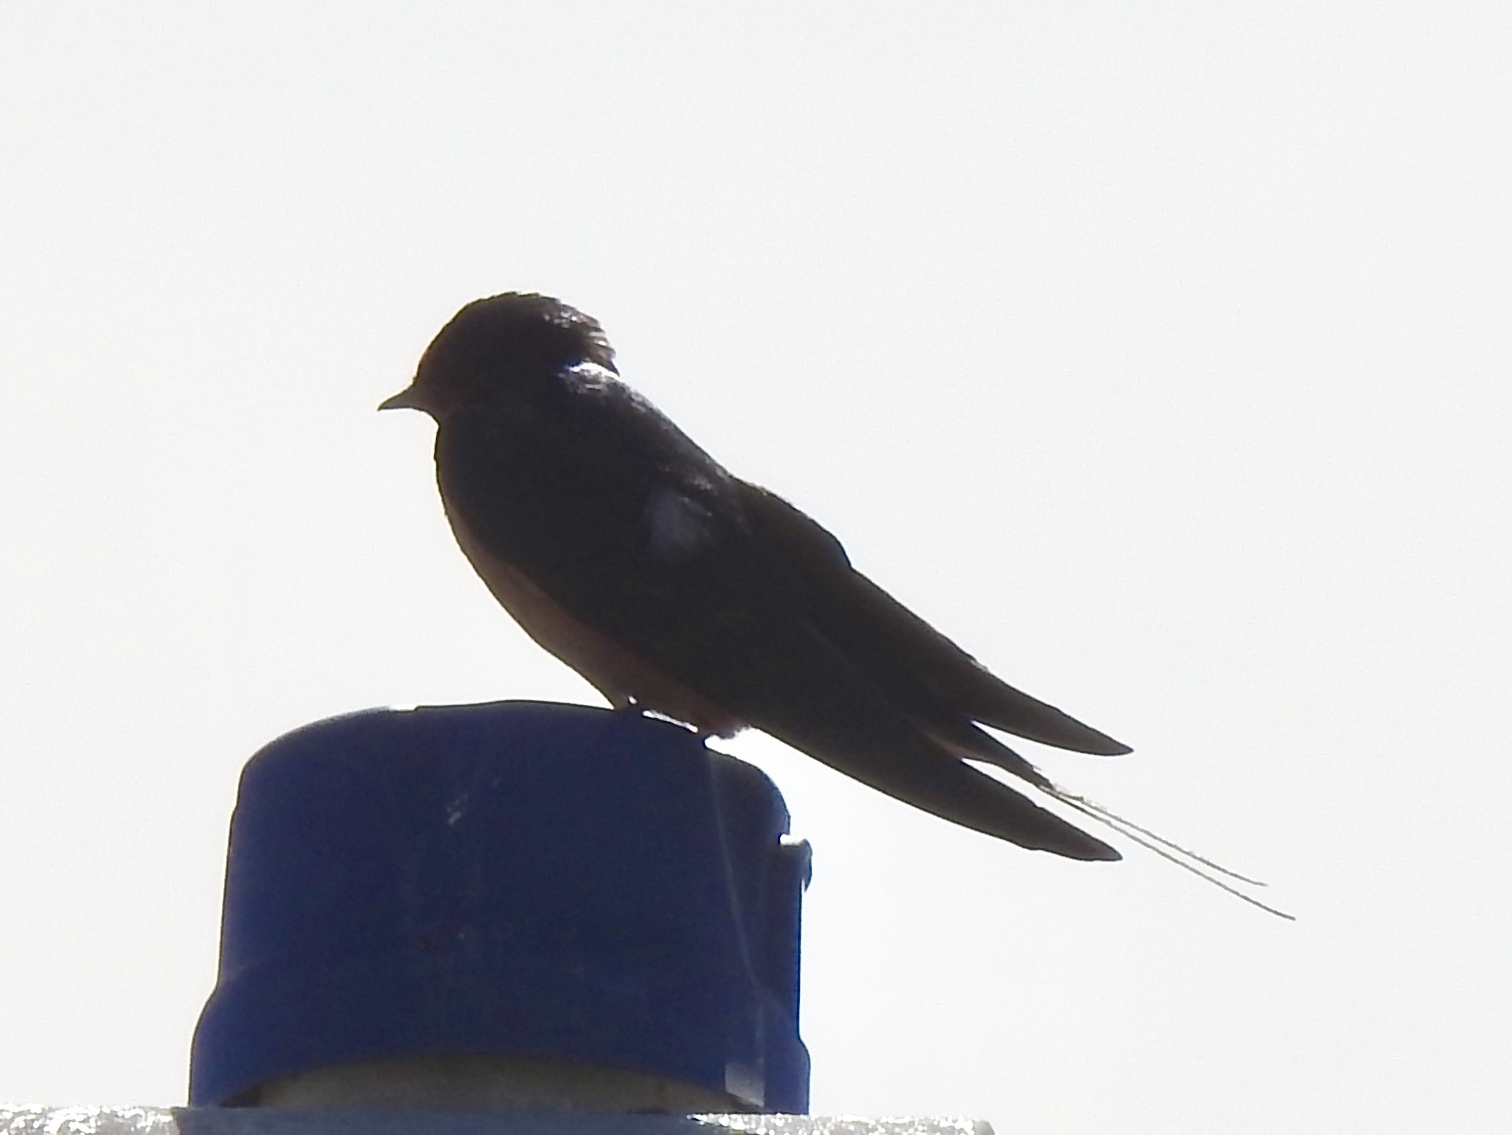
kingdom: Animalia
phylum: Chordata
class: Aves
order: Passeriformes
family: Hirundinidae
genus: Hirundo
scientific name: Hirundo rustica
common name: Barn swallow
